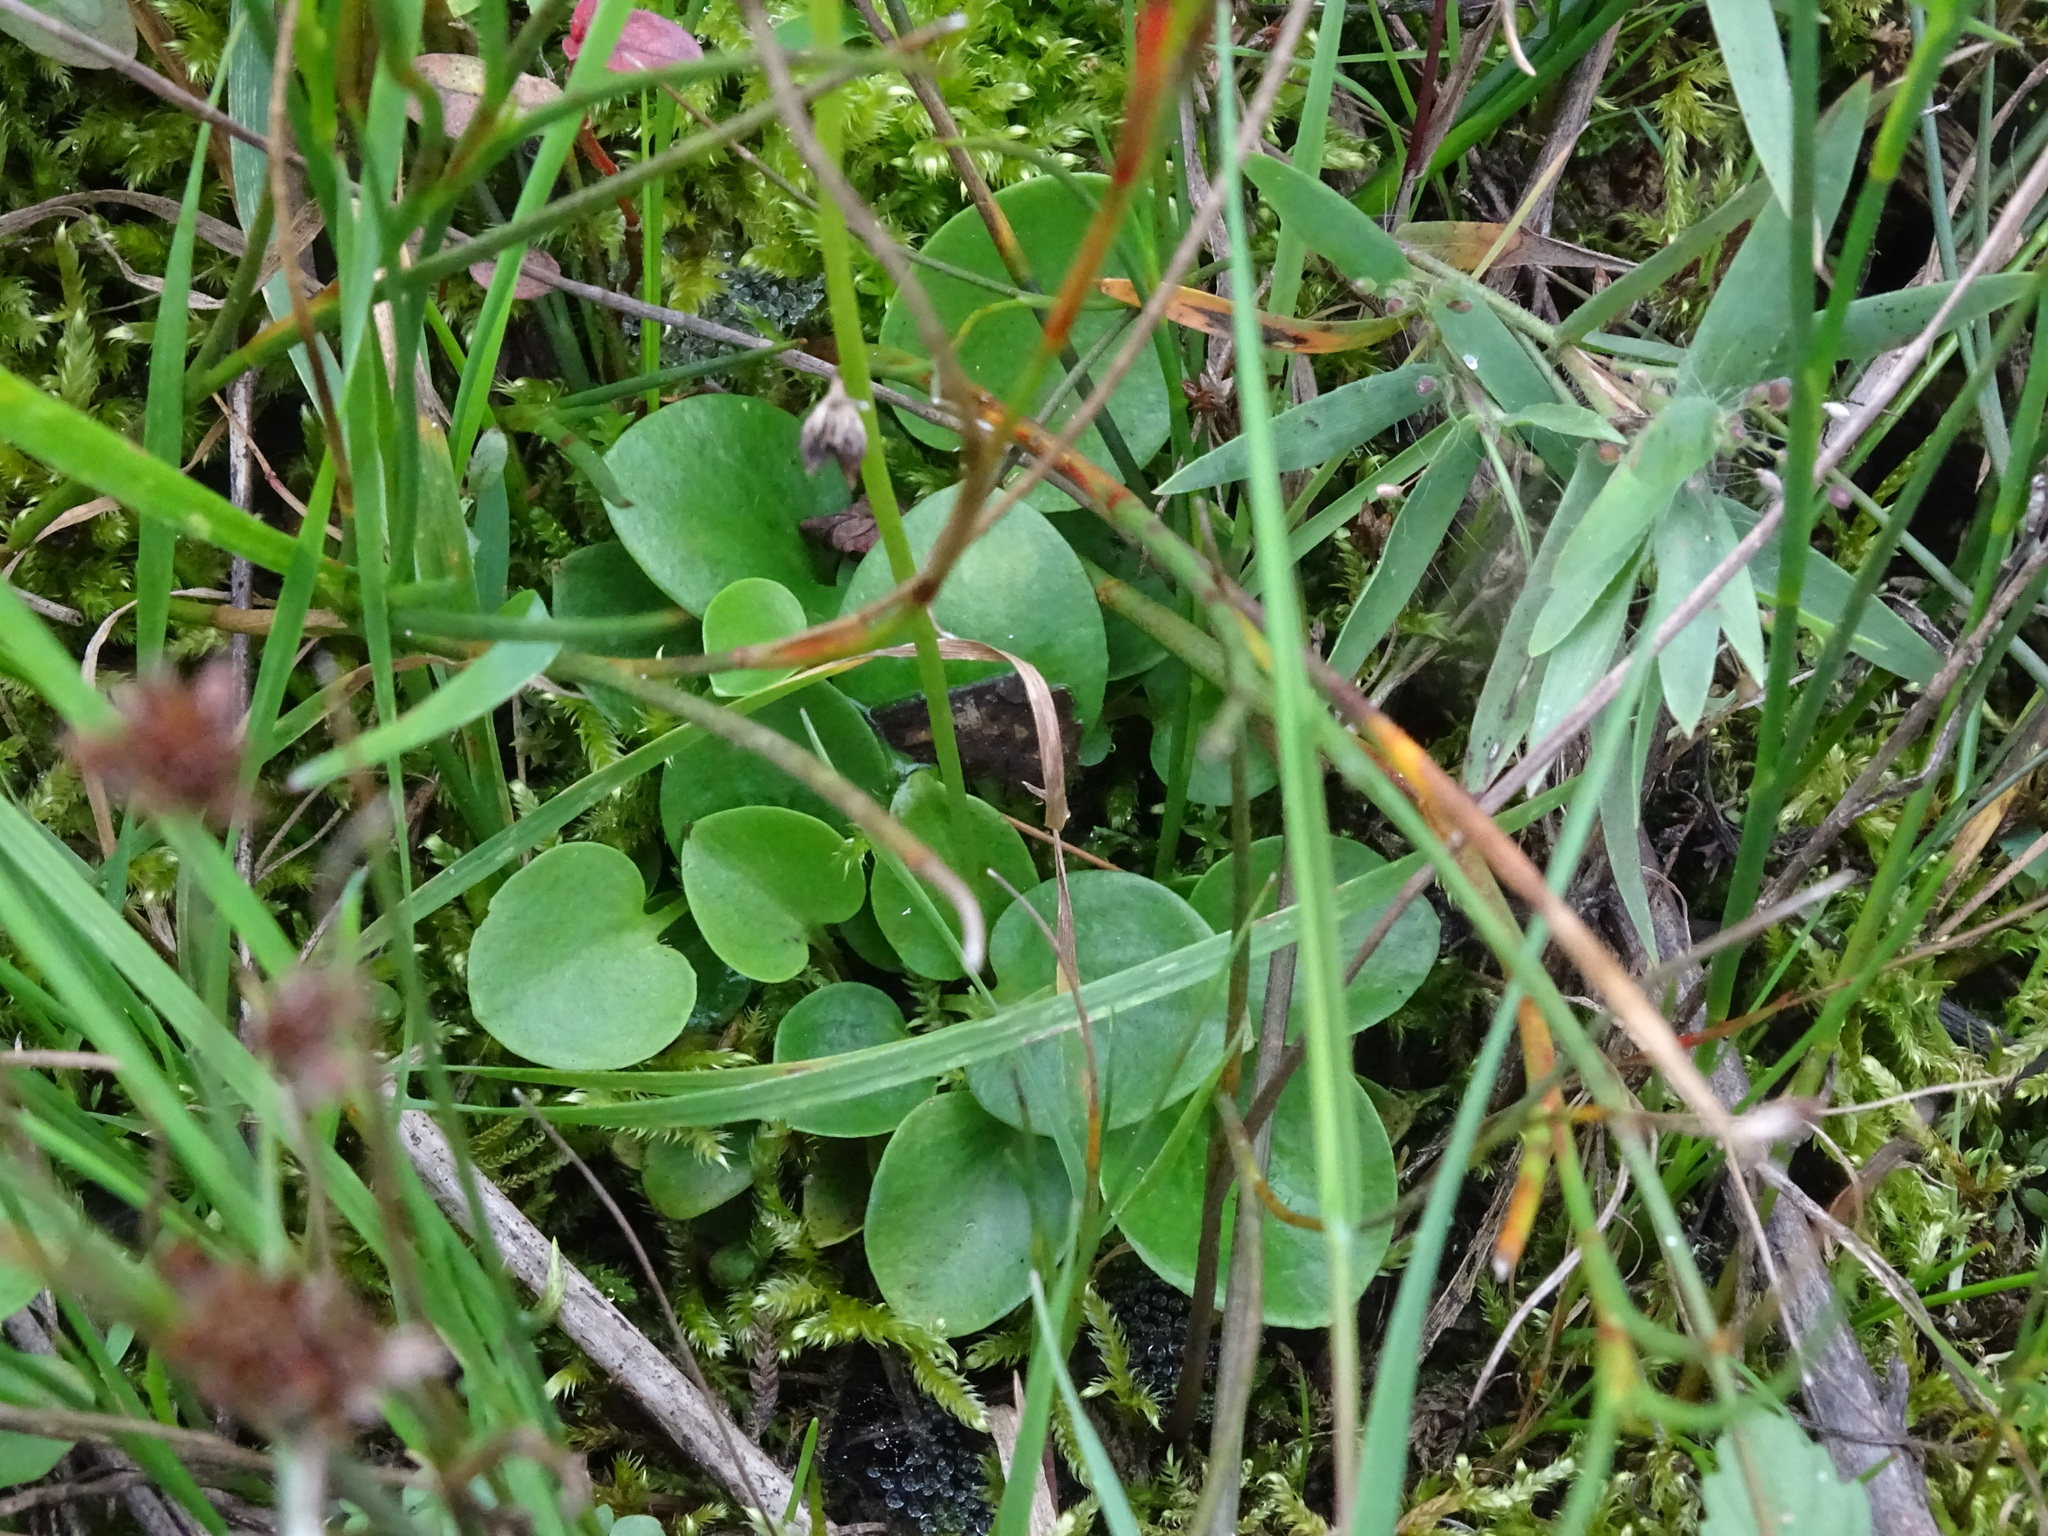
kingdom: Plantae
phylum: Tracheophyta
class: Magnoliopsida
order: Celastrales
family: Parnassiaceae
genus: Parnassia
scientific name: Parnassia glauca
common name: American grass-of-parnassus
